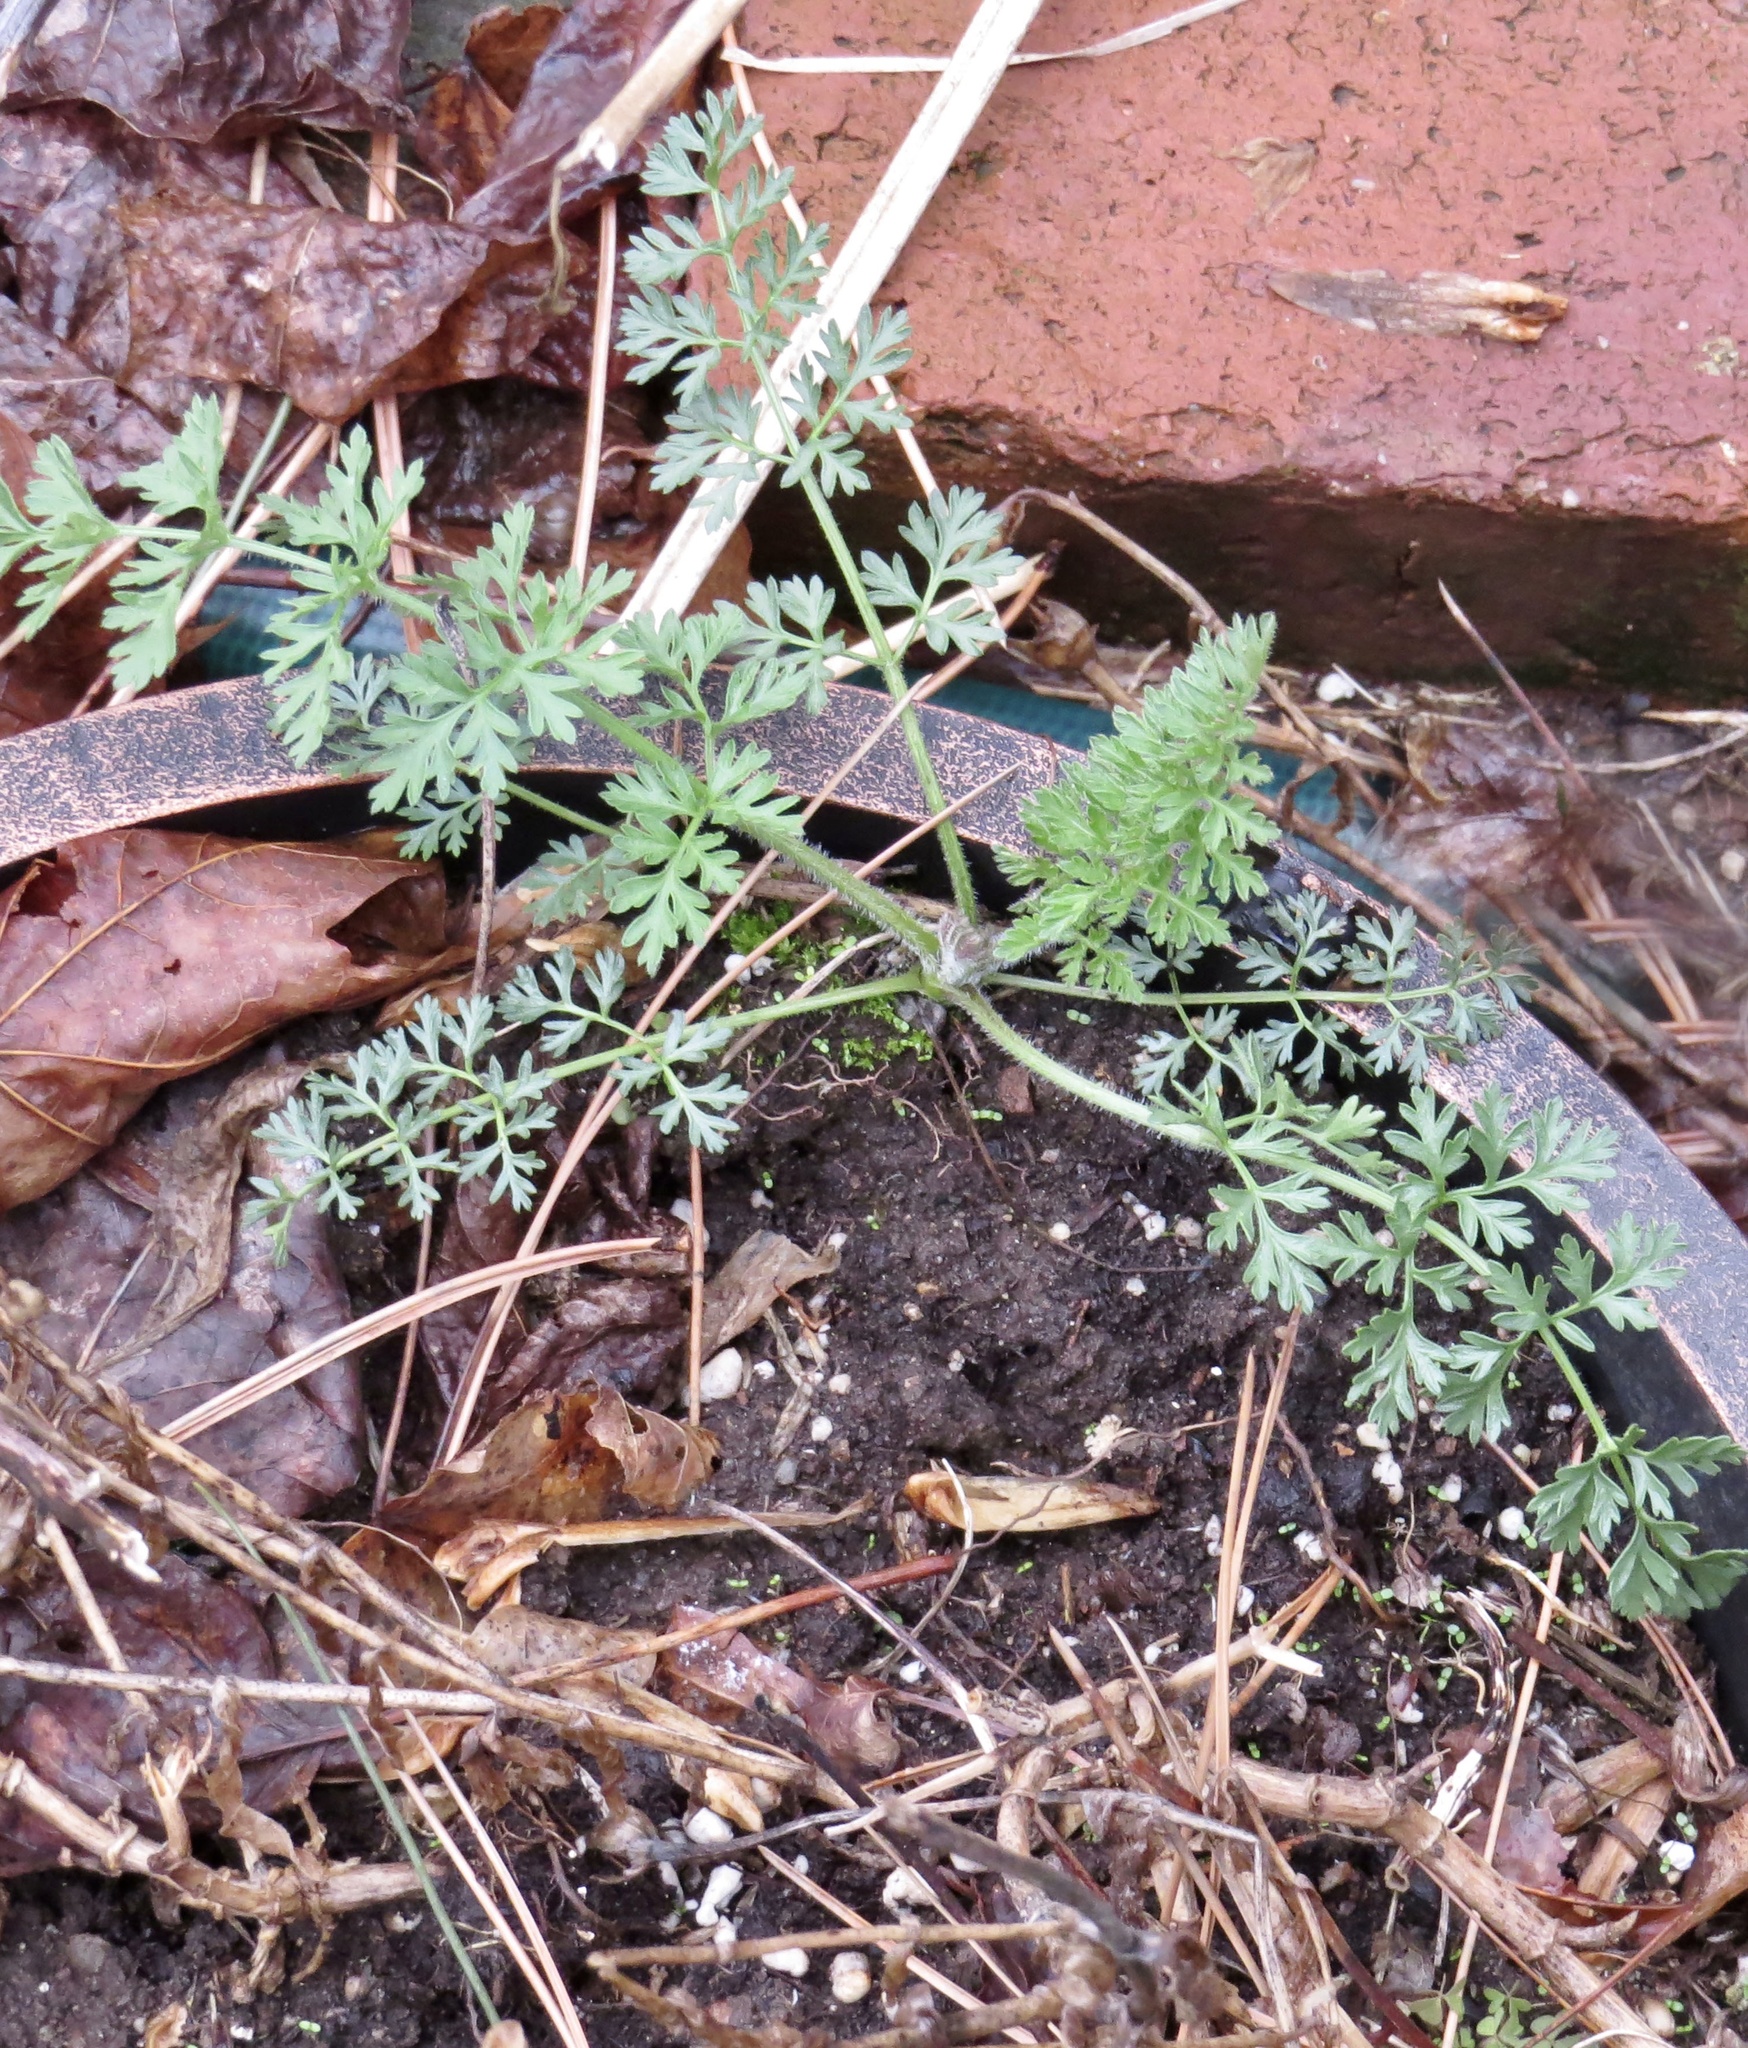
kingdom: Plantae
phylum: Tracheophyta
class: Magnoliopsida
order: Apiales
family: Apiaceae
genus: Daucus
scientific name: Daucus carota
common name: Wild carrot
